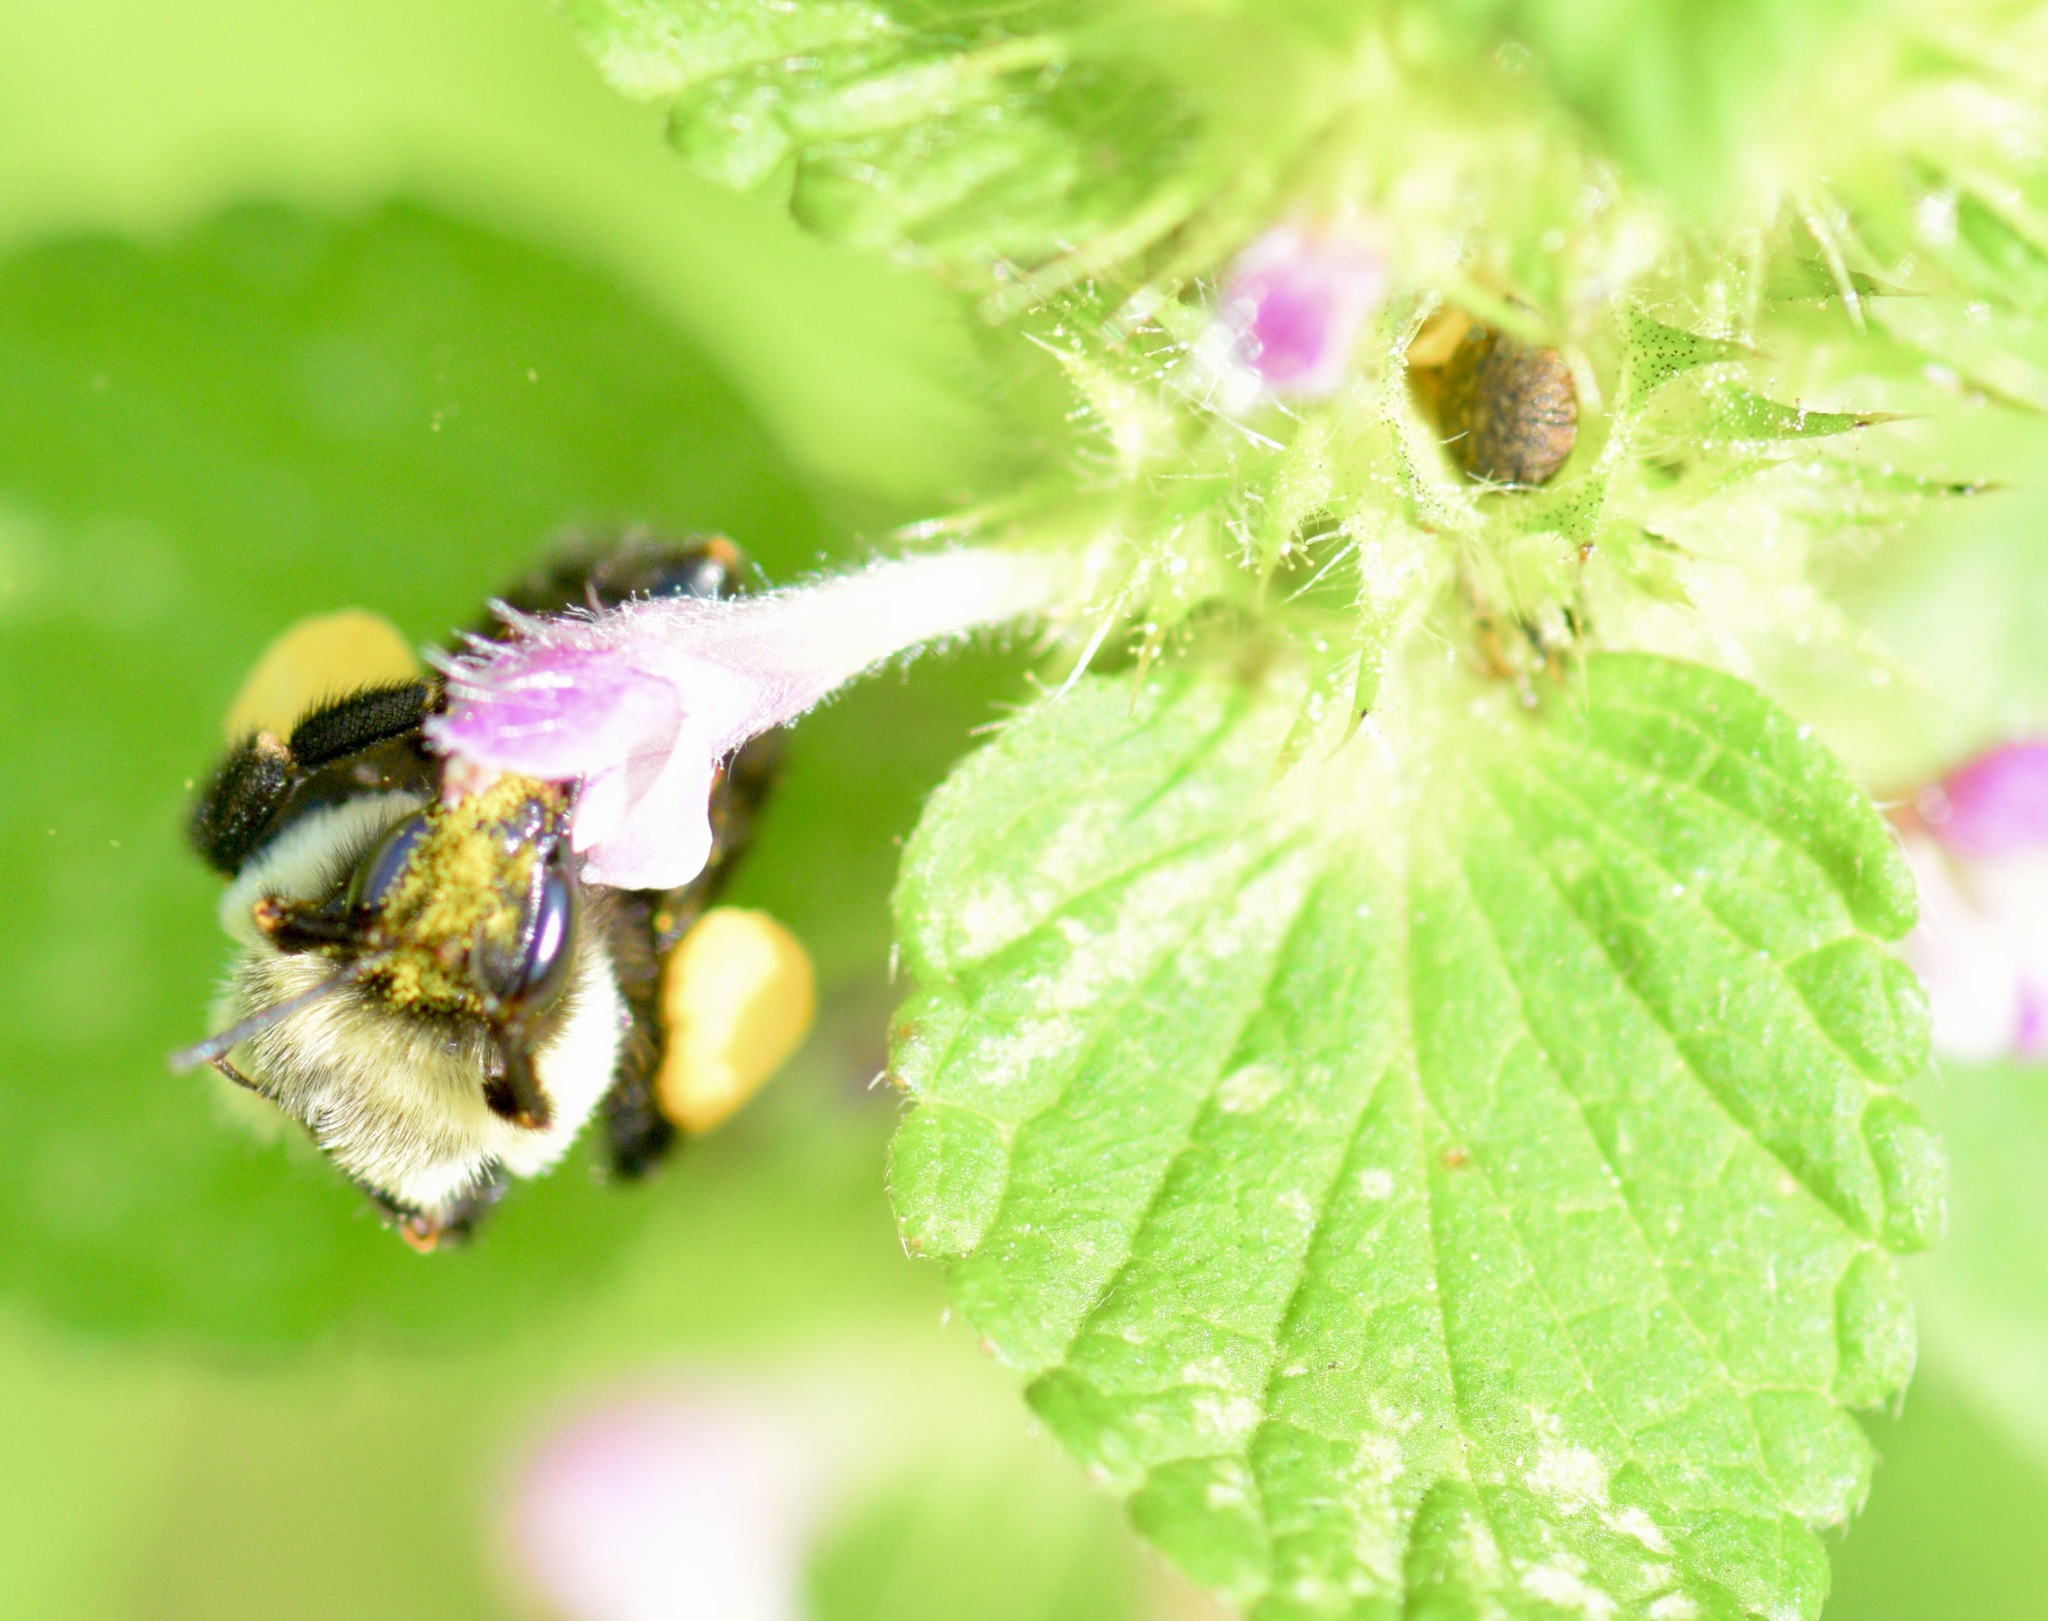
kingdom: Animalia
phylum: Arthropoda
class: Insecta
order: Hymenoptera
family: Apidae
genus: Bombus
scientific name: Bombus impatiens
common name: Common eastern bumble bee
